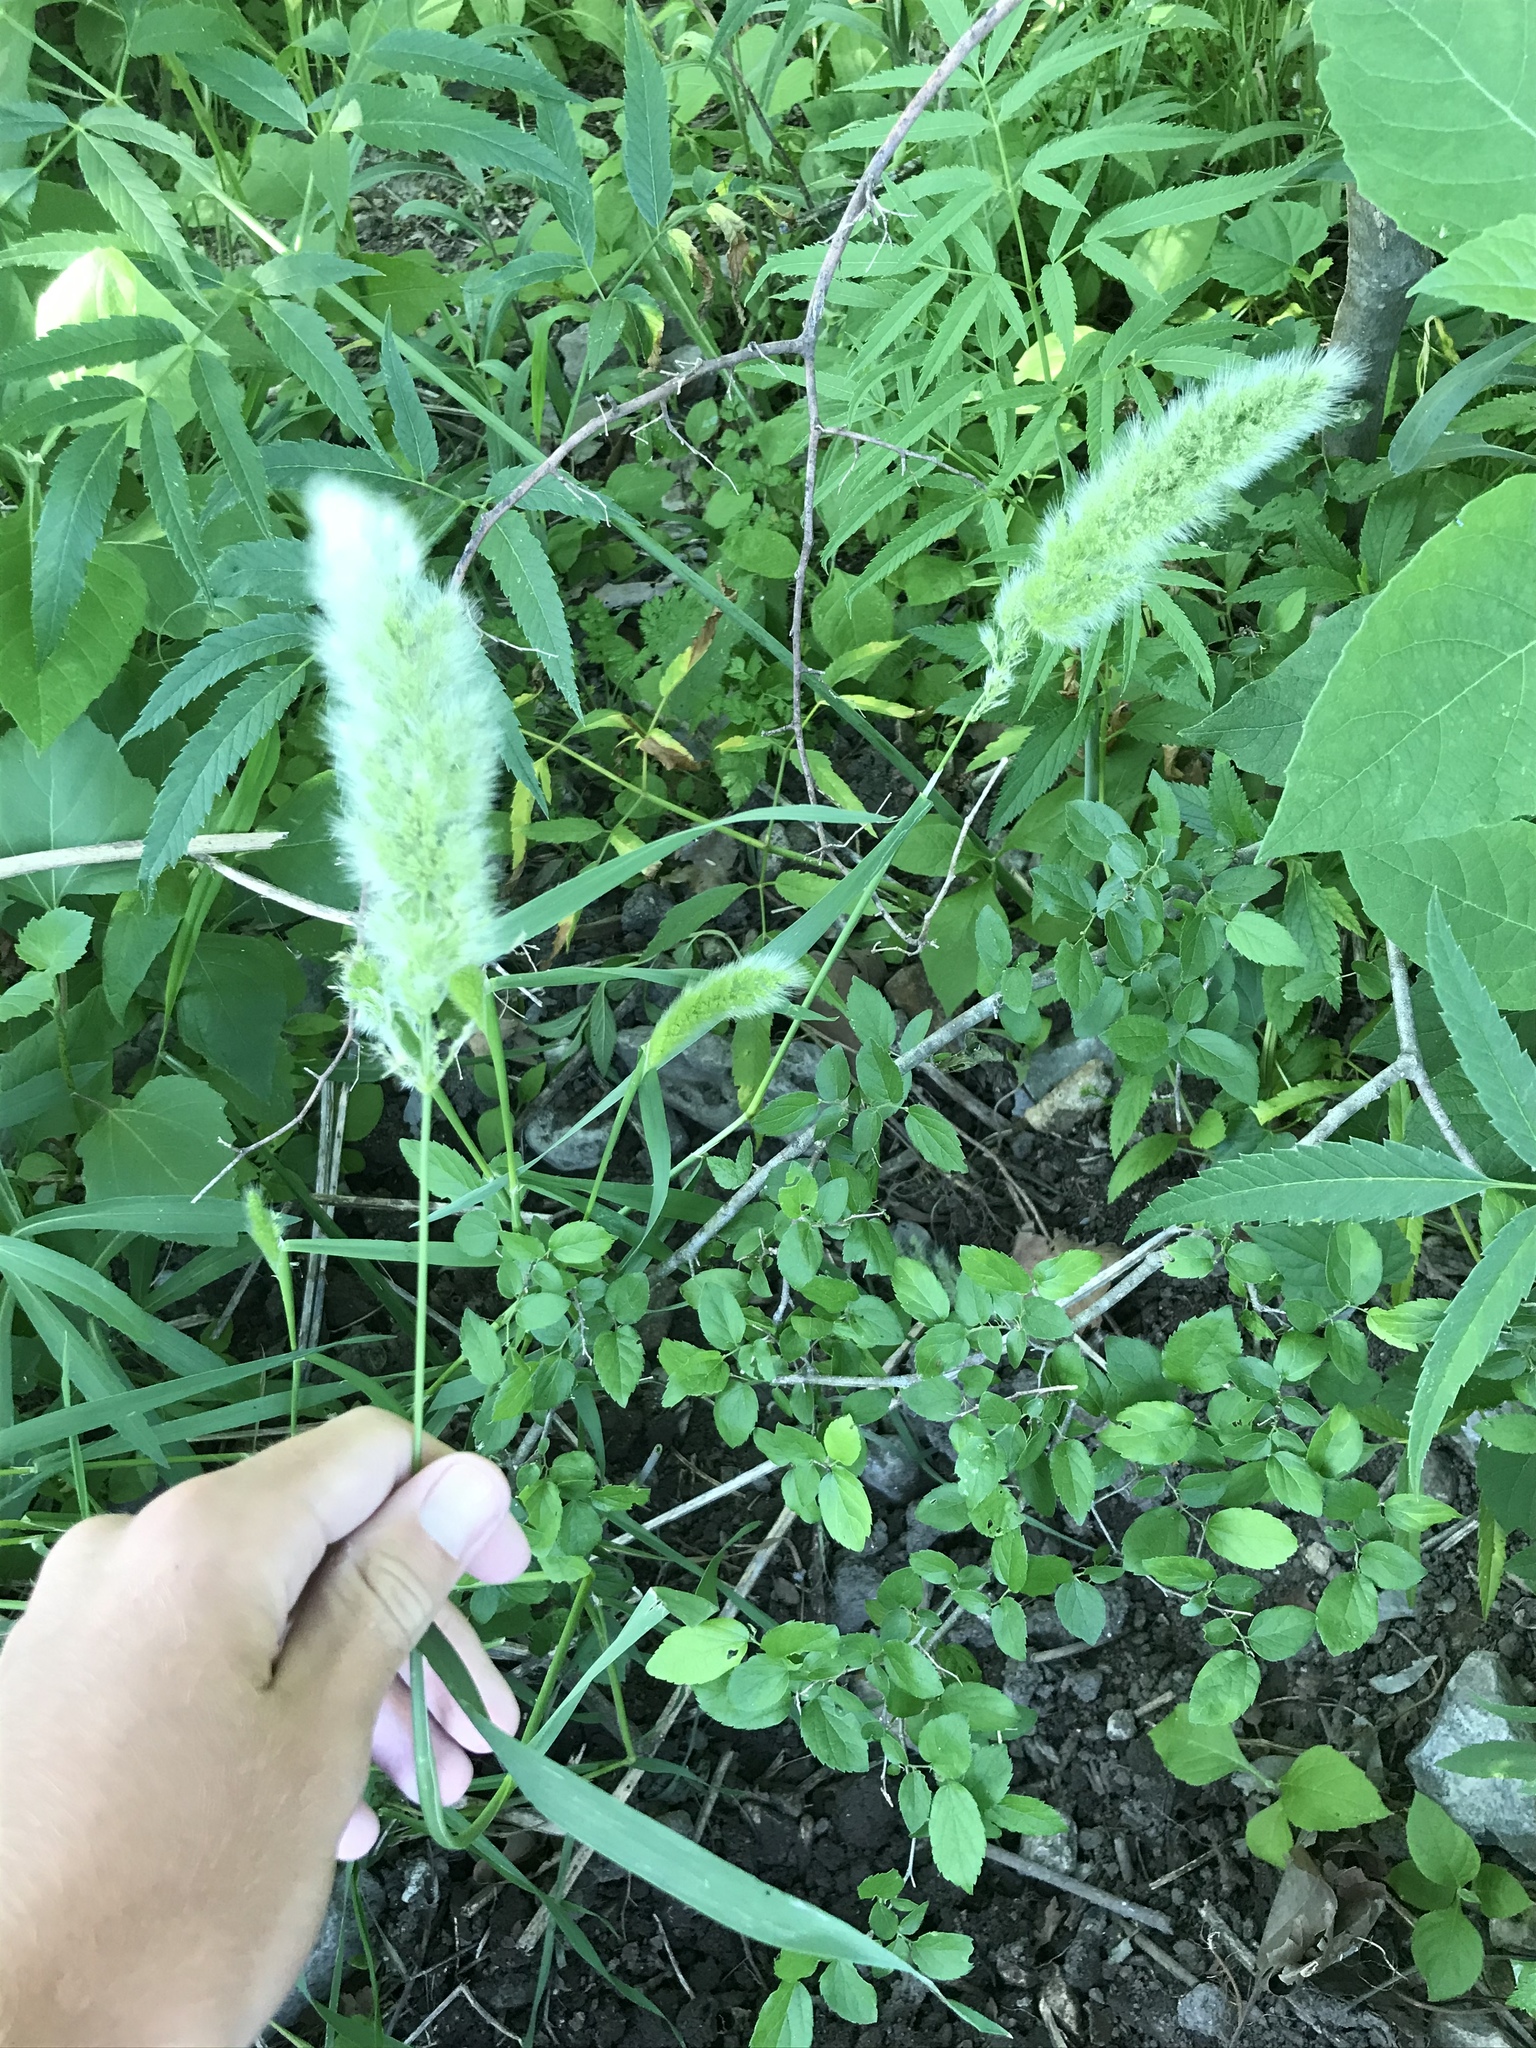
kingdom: Plantae
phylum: Tracheophyta
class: Liliopsida
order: Poales
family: Poaceae
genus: Polypogon
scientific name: Polypogon monspeliensis
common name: Annual rabbitsfoot grass
